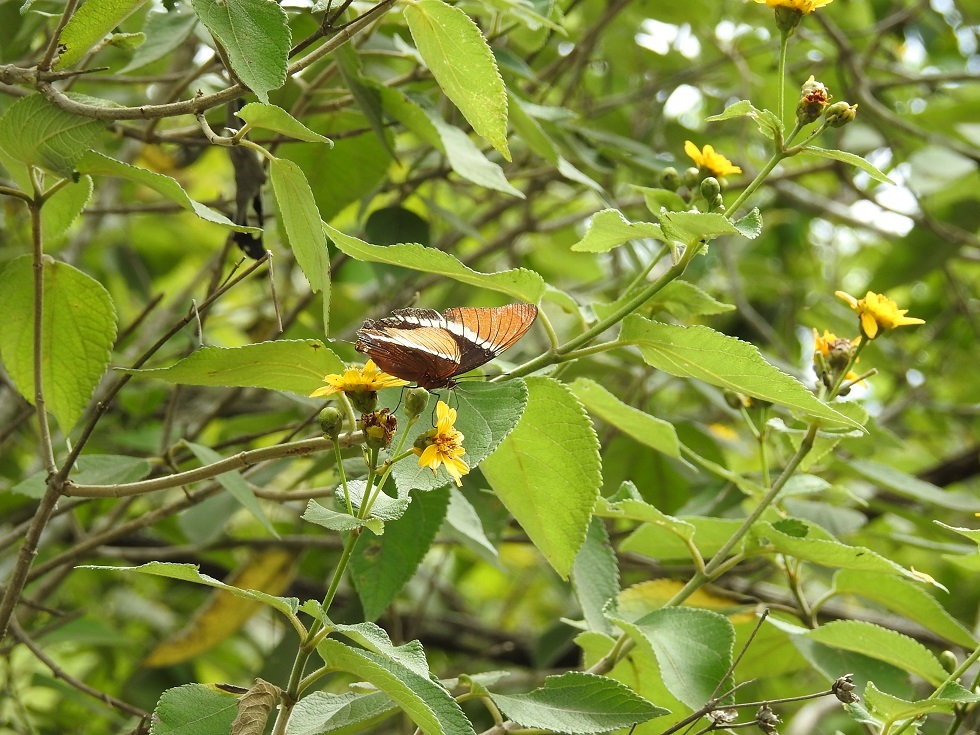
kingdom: Animalia
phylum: Arthropoda
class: Insecta
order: Lepidoptera
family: Nymphalidae
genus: Siproeta
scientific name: Siproeta epaphus
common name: Rusty-tipped page
